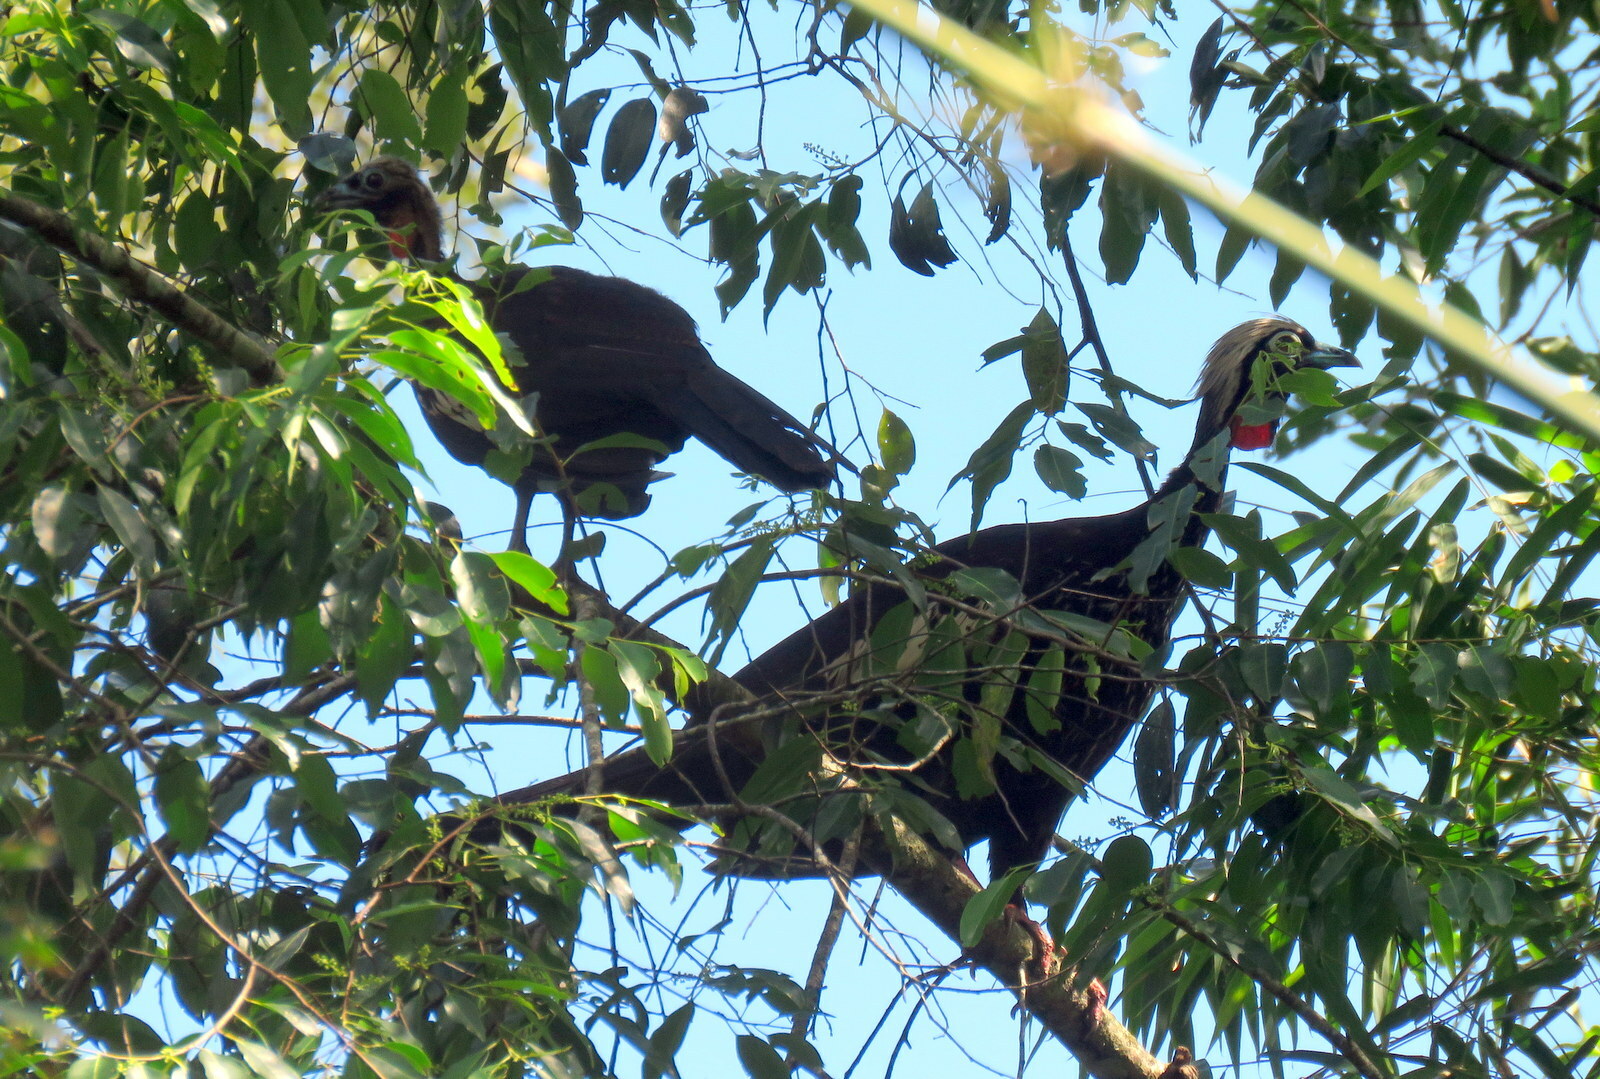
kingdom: Animalia
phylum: Chordata
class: Aves
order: Galliformes
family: Cracidae
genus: Pipile
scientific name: Pipile jacutinga
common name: Black-fronted piping-guan
